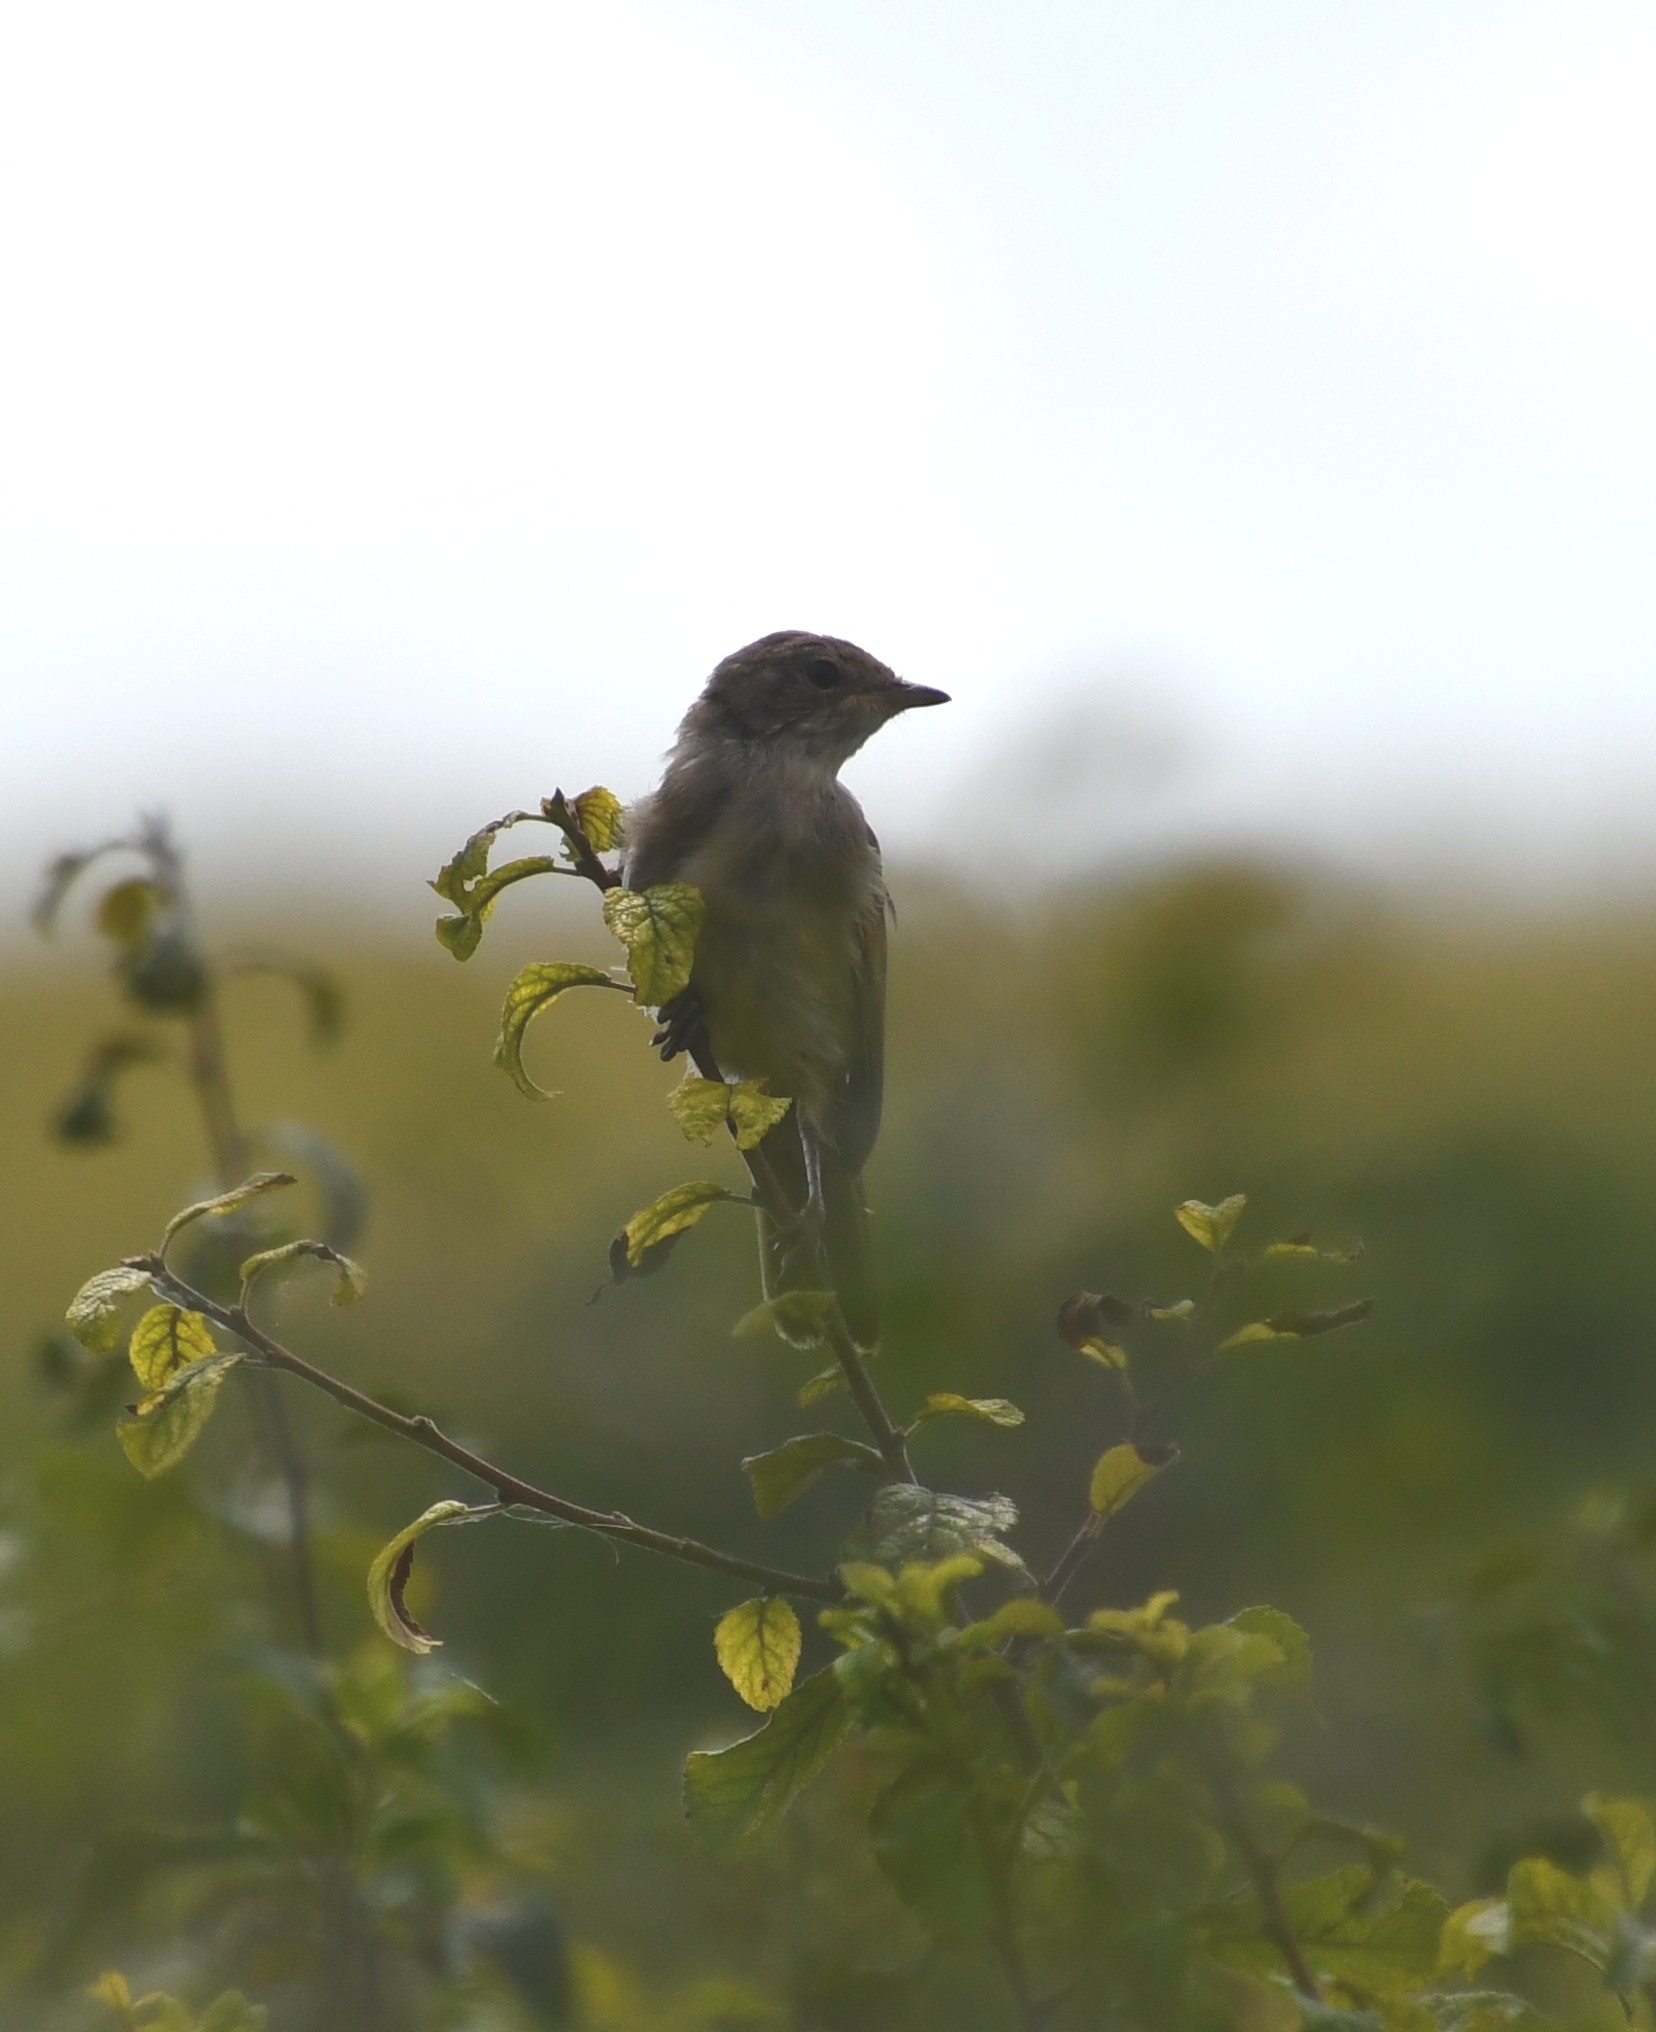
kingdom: Animalia
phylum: Chordata
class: Aves
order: Passeriformes
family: Sylviidae
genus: Sylvia
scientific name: Sylvia communis
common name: Common whitethroat
